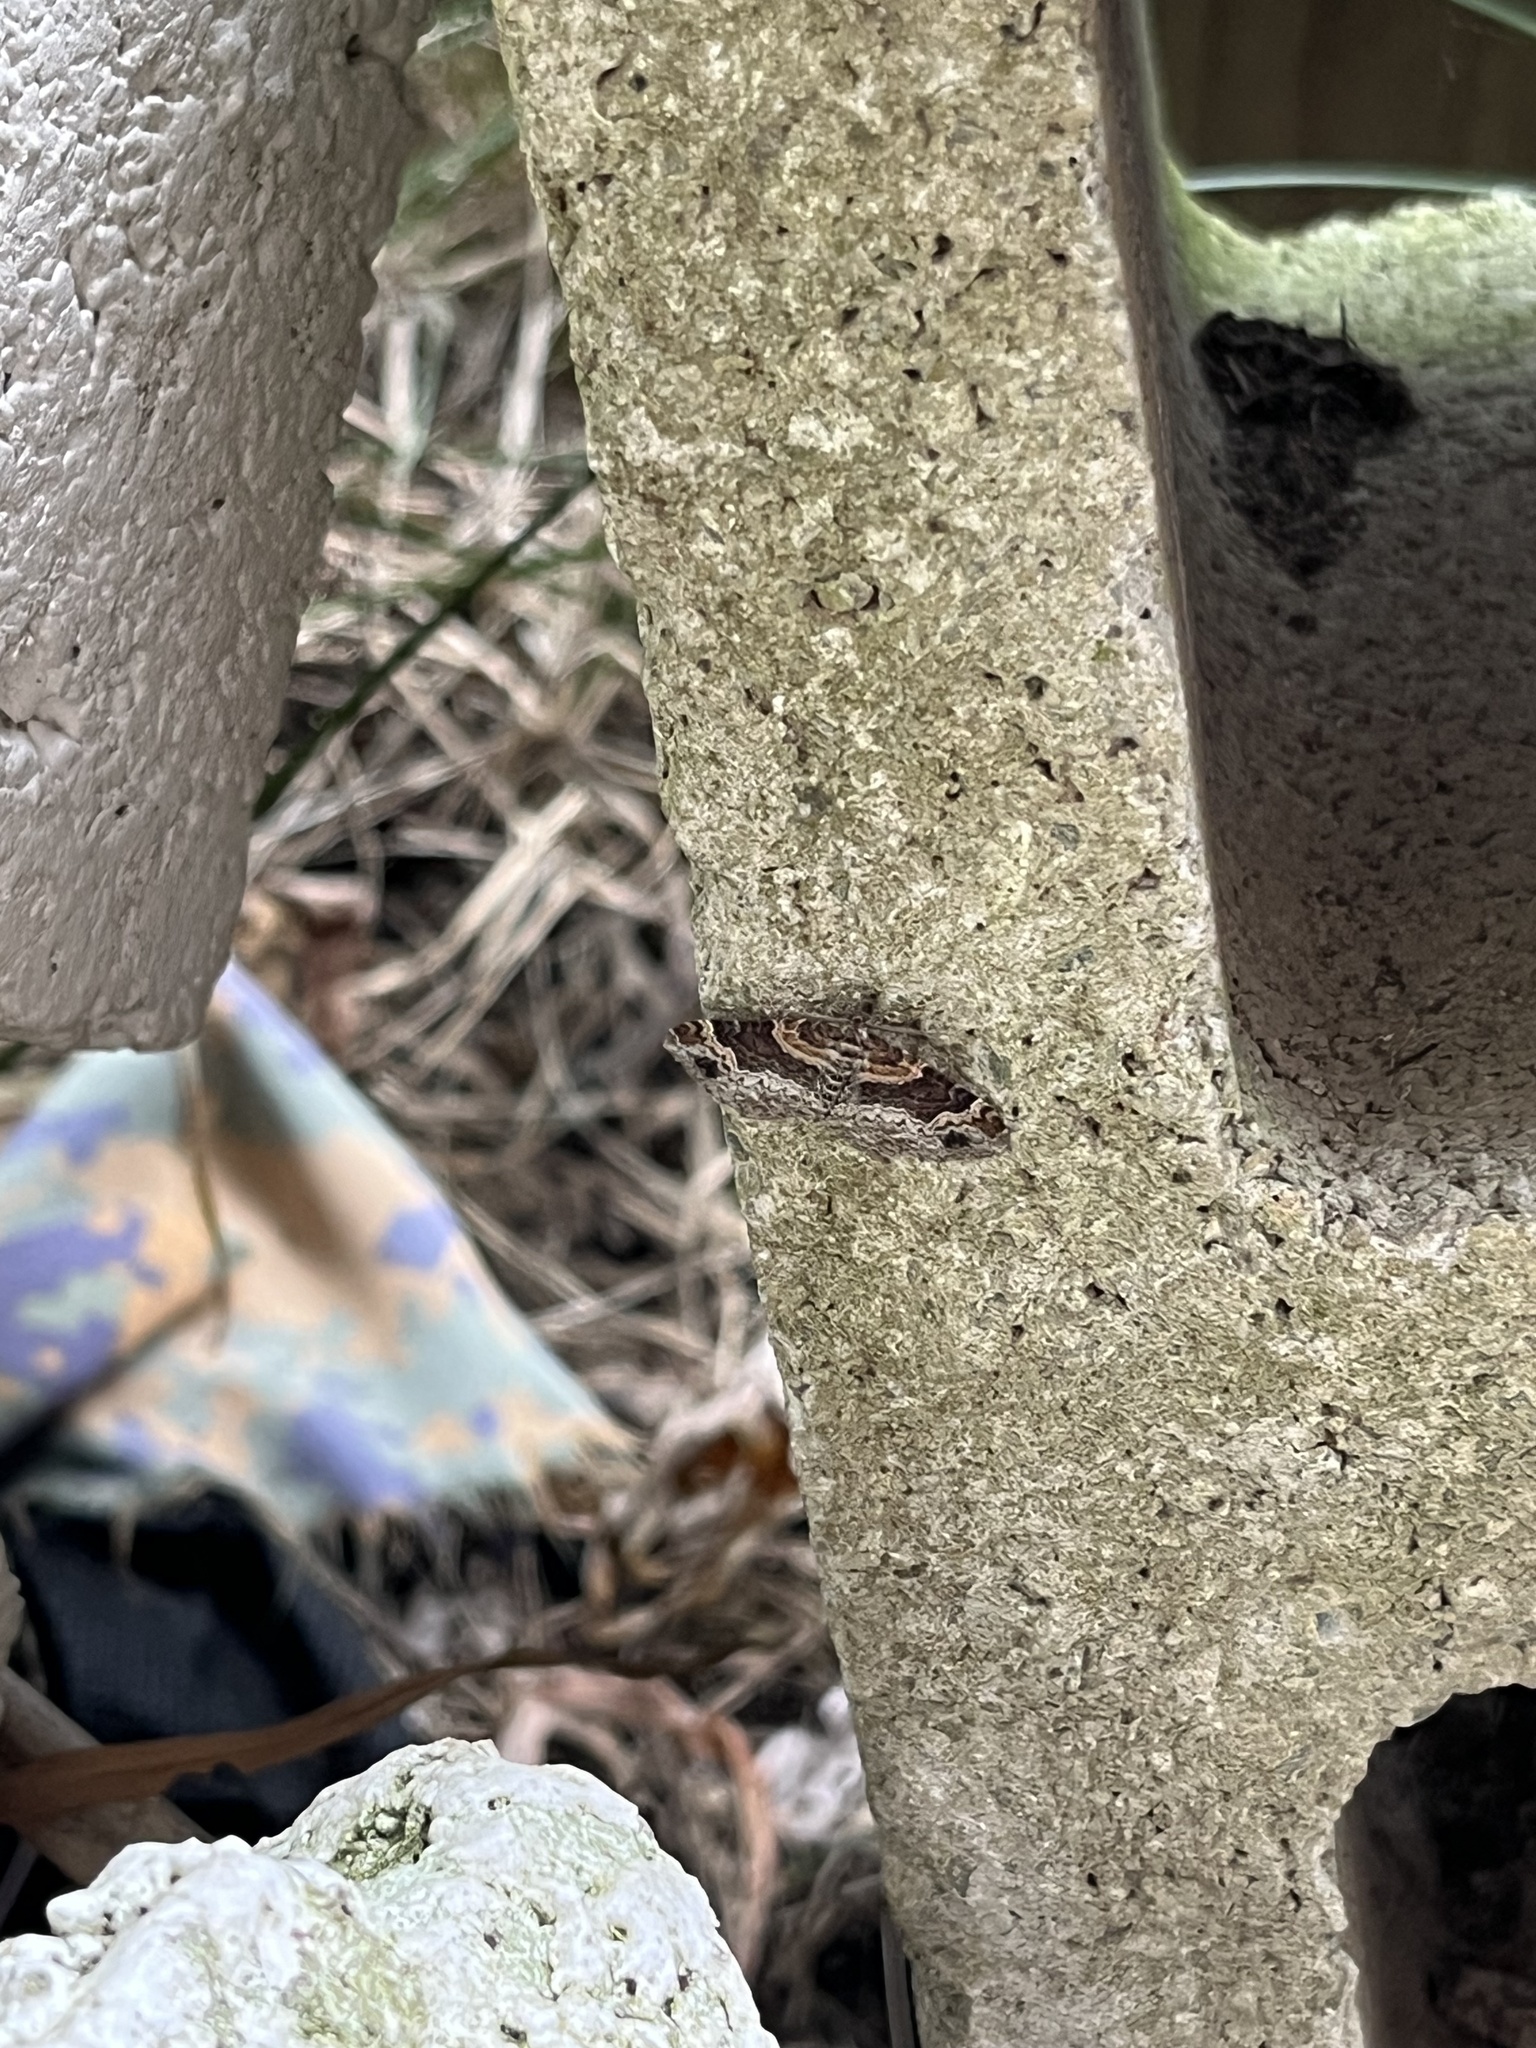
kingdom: Animalia
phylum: Arthropoda
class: Insecta
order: Lepidoptera
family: Geometridae
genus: Xanthorhoe
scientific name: Xanthorhoe ferrugata
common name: Dark-barred twin-spot carpet
